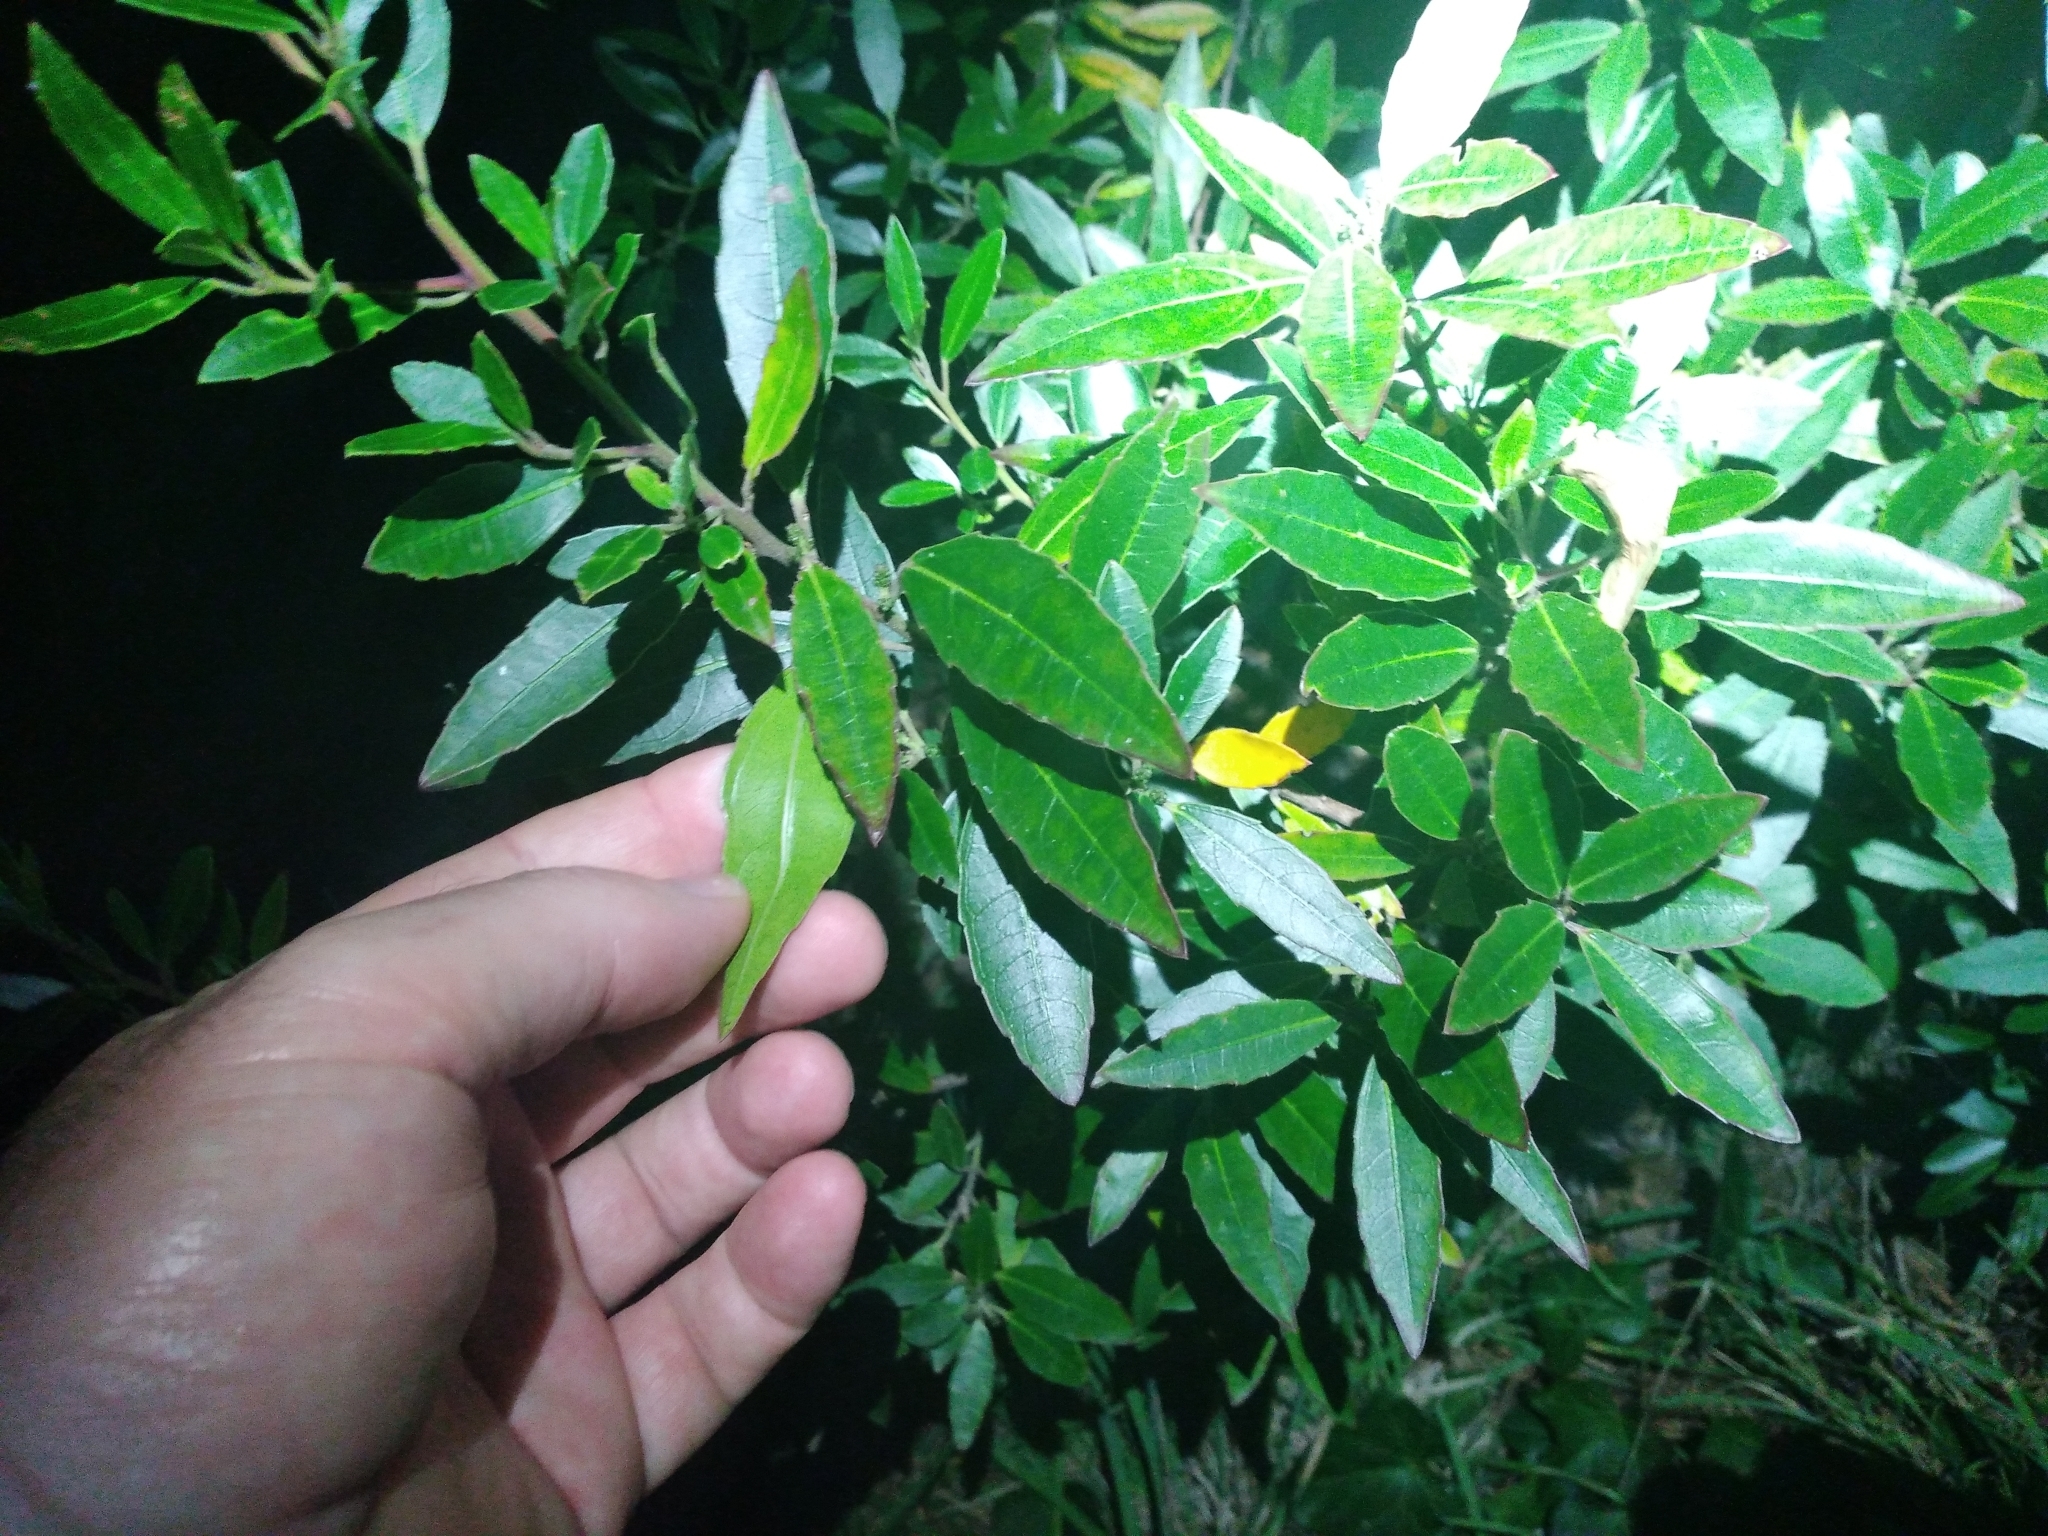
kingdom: Plantae
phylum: Tracheophyta
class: Magnoliopsida
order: Rosales
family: Rhamnaceae
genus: Rhamnus
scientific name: Rhamnus alaternus
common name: Mediterranean buckthorn
